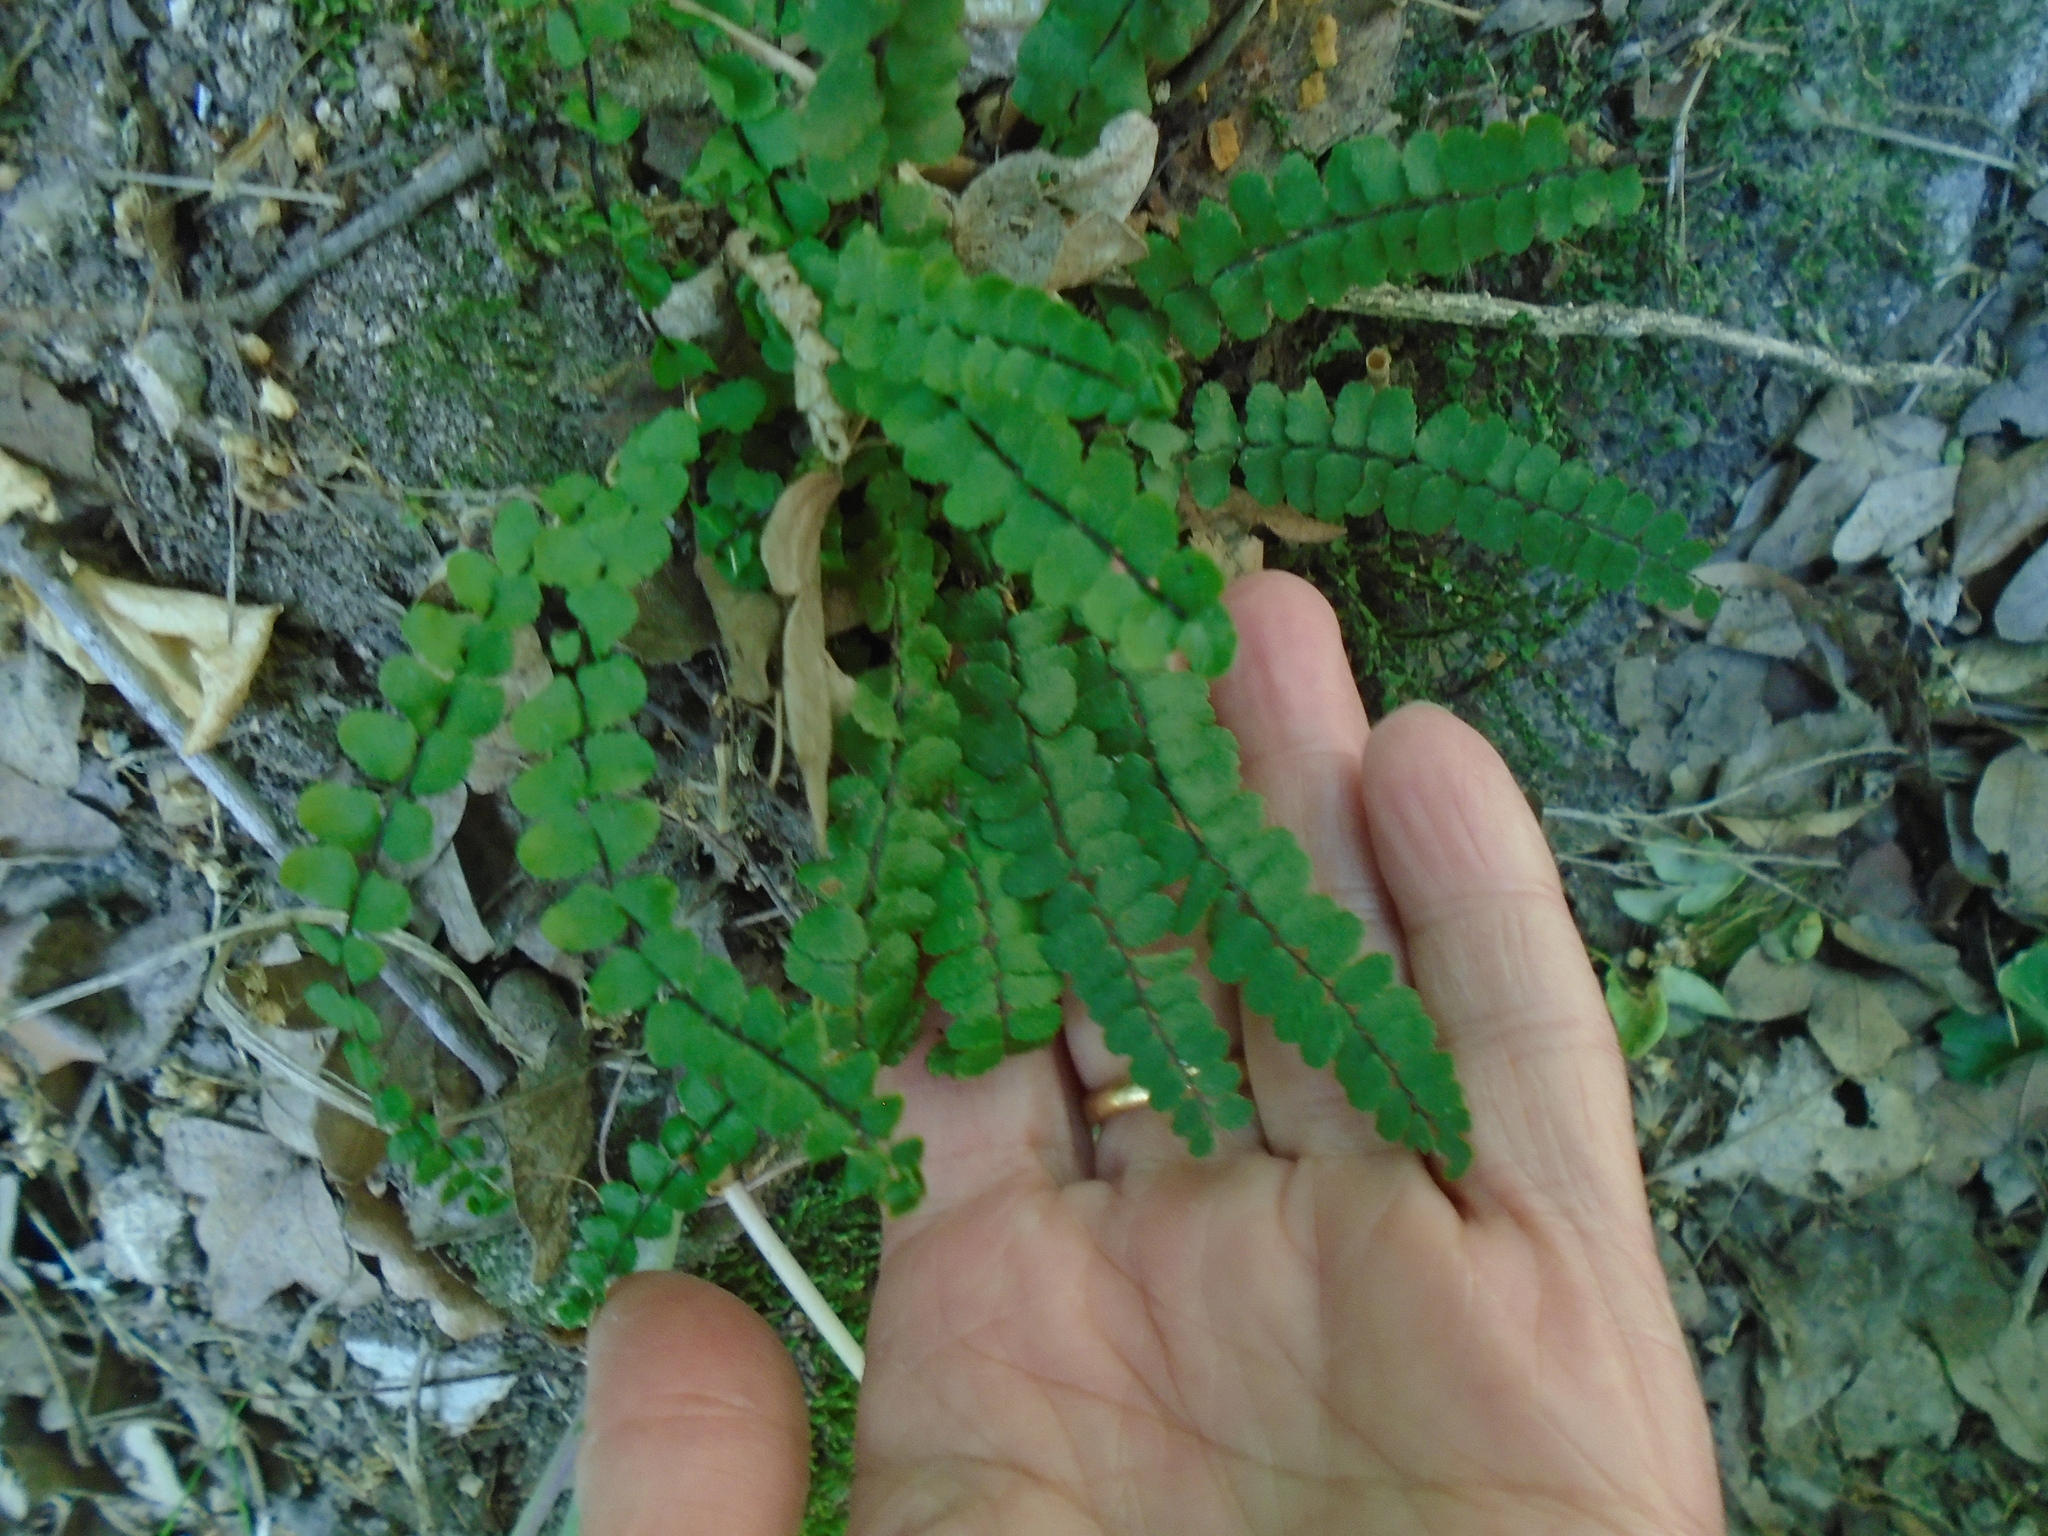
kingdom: Plantae
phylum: Tracheophyta
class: Polypodiopsida
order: Polypodiales
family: Aspleniaceae
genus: Asplenium
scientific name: Asplenium trichomanes
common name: Maidenhair spleenwort
